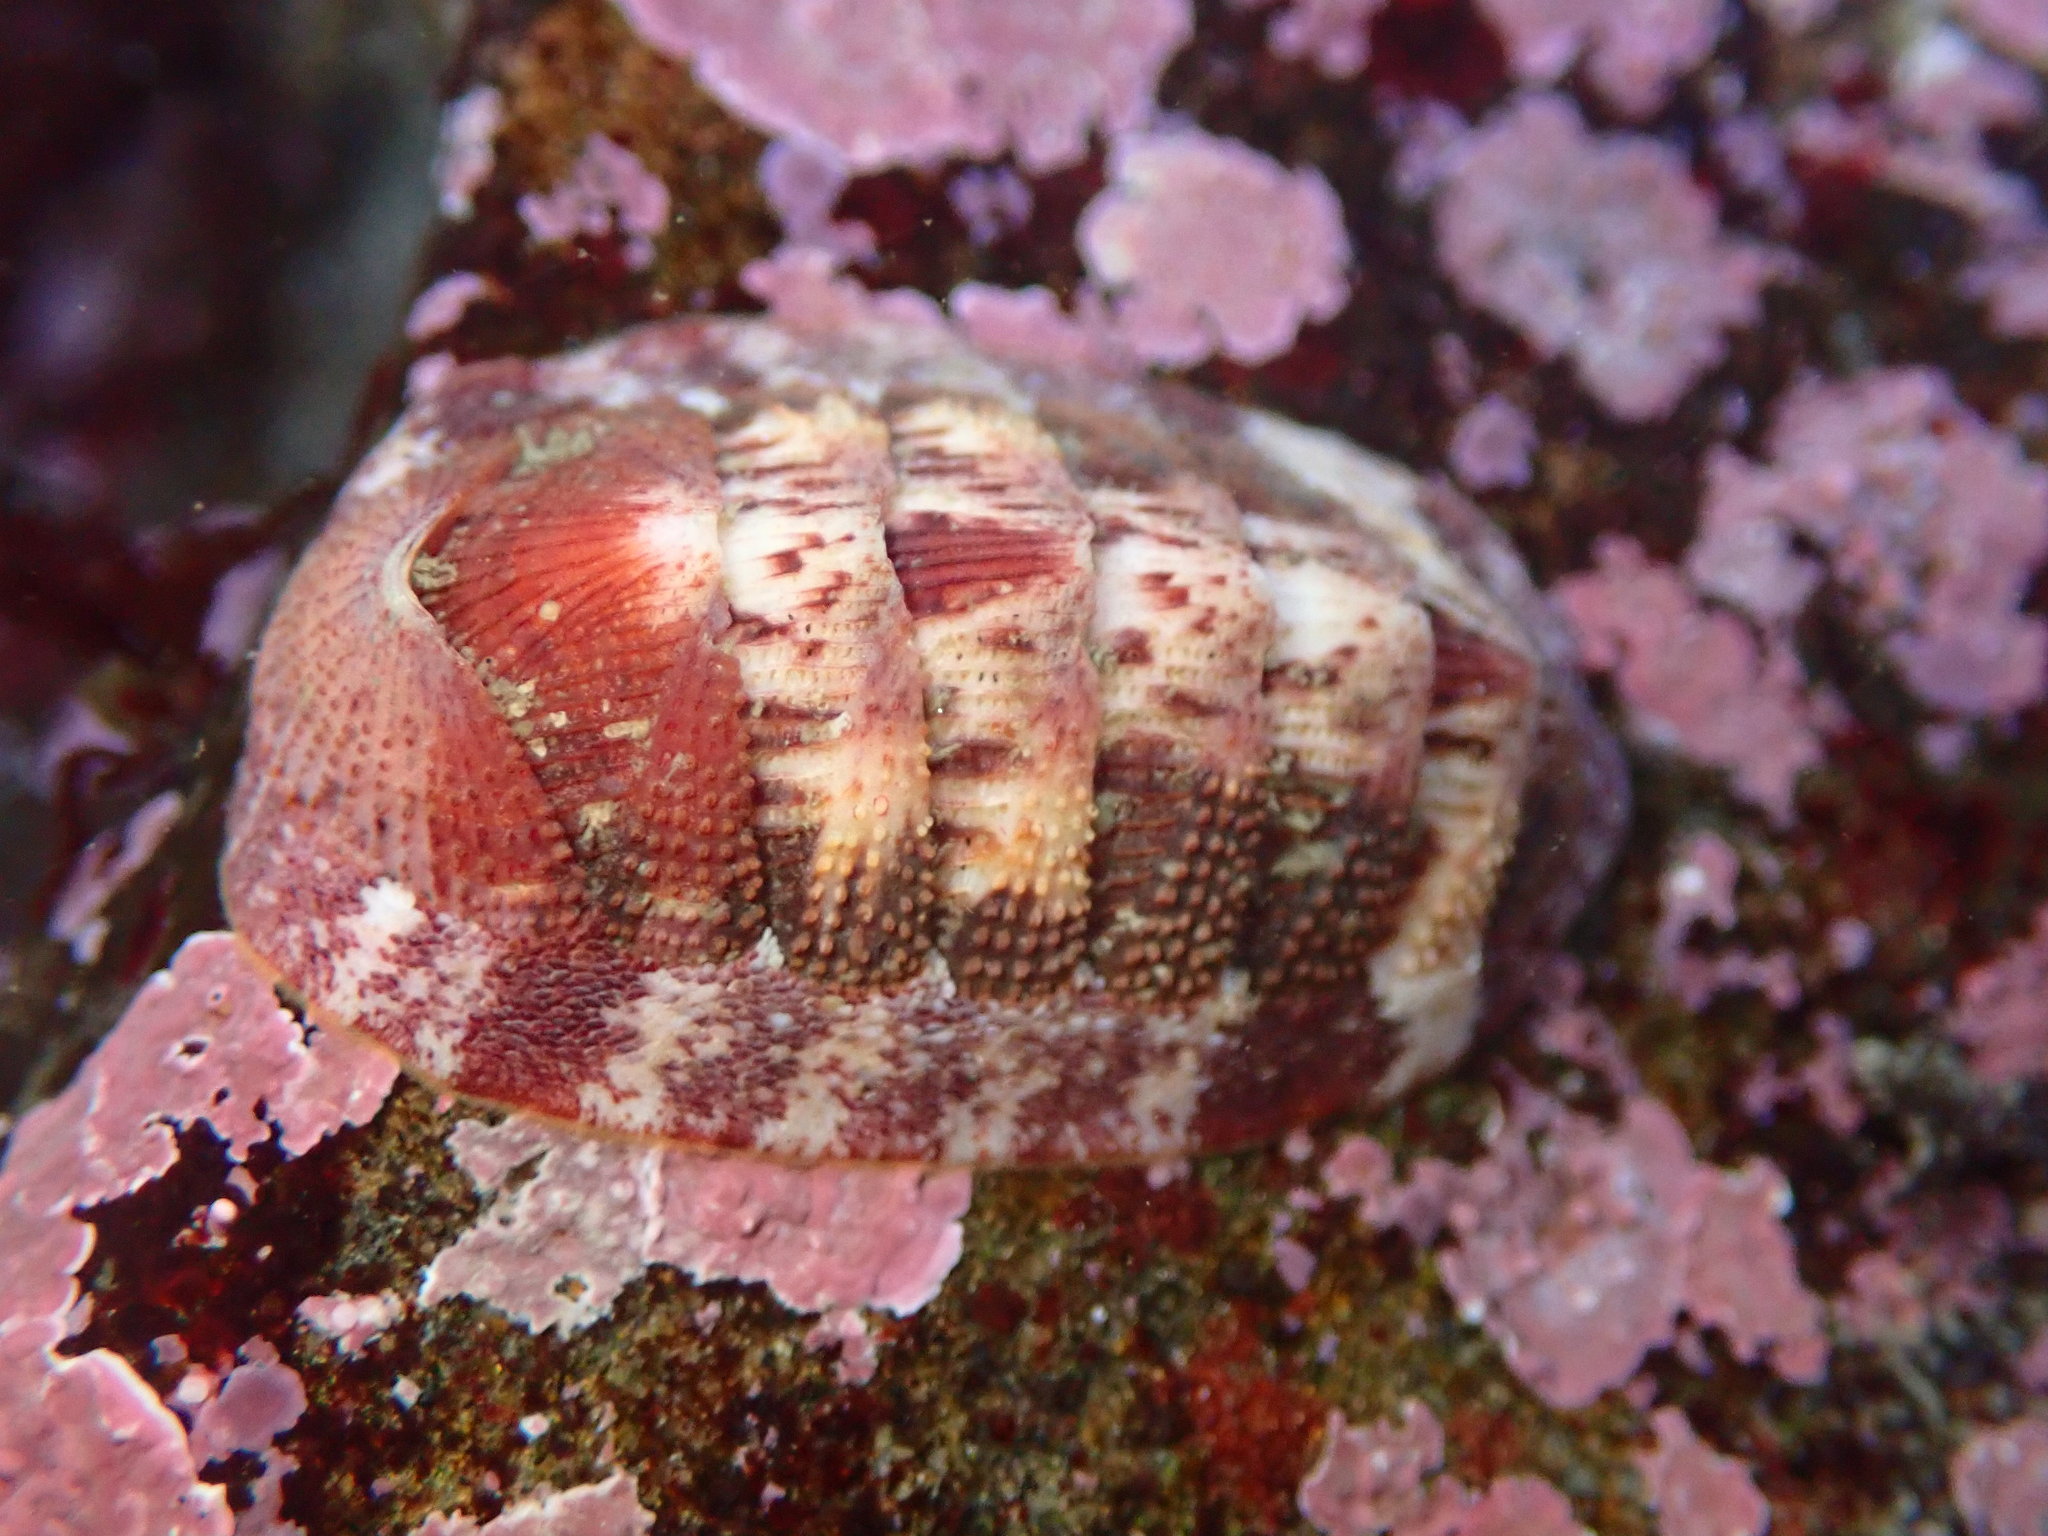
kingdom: Animalia
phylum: Mollusca
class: Polyplacophora
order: Chitonida
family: Ischnochitonidae
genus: Lepidozona
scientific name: Lepidozona mertensii
